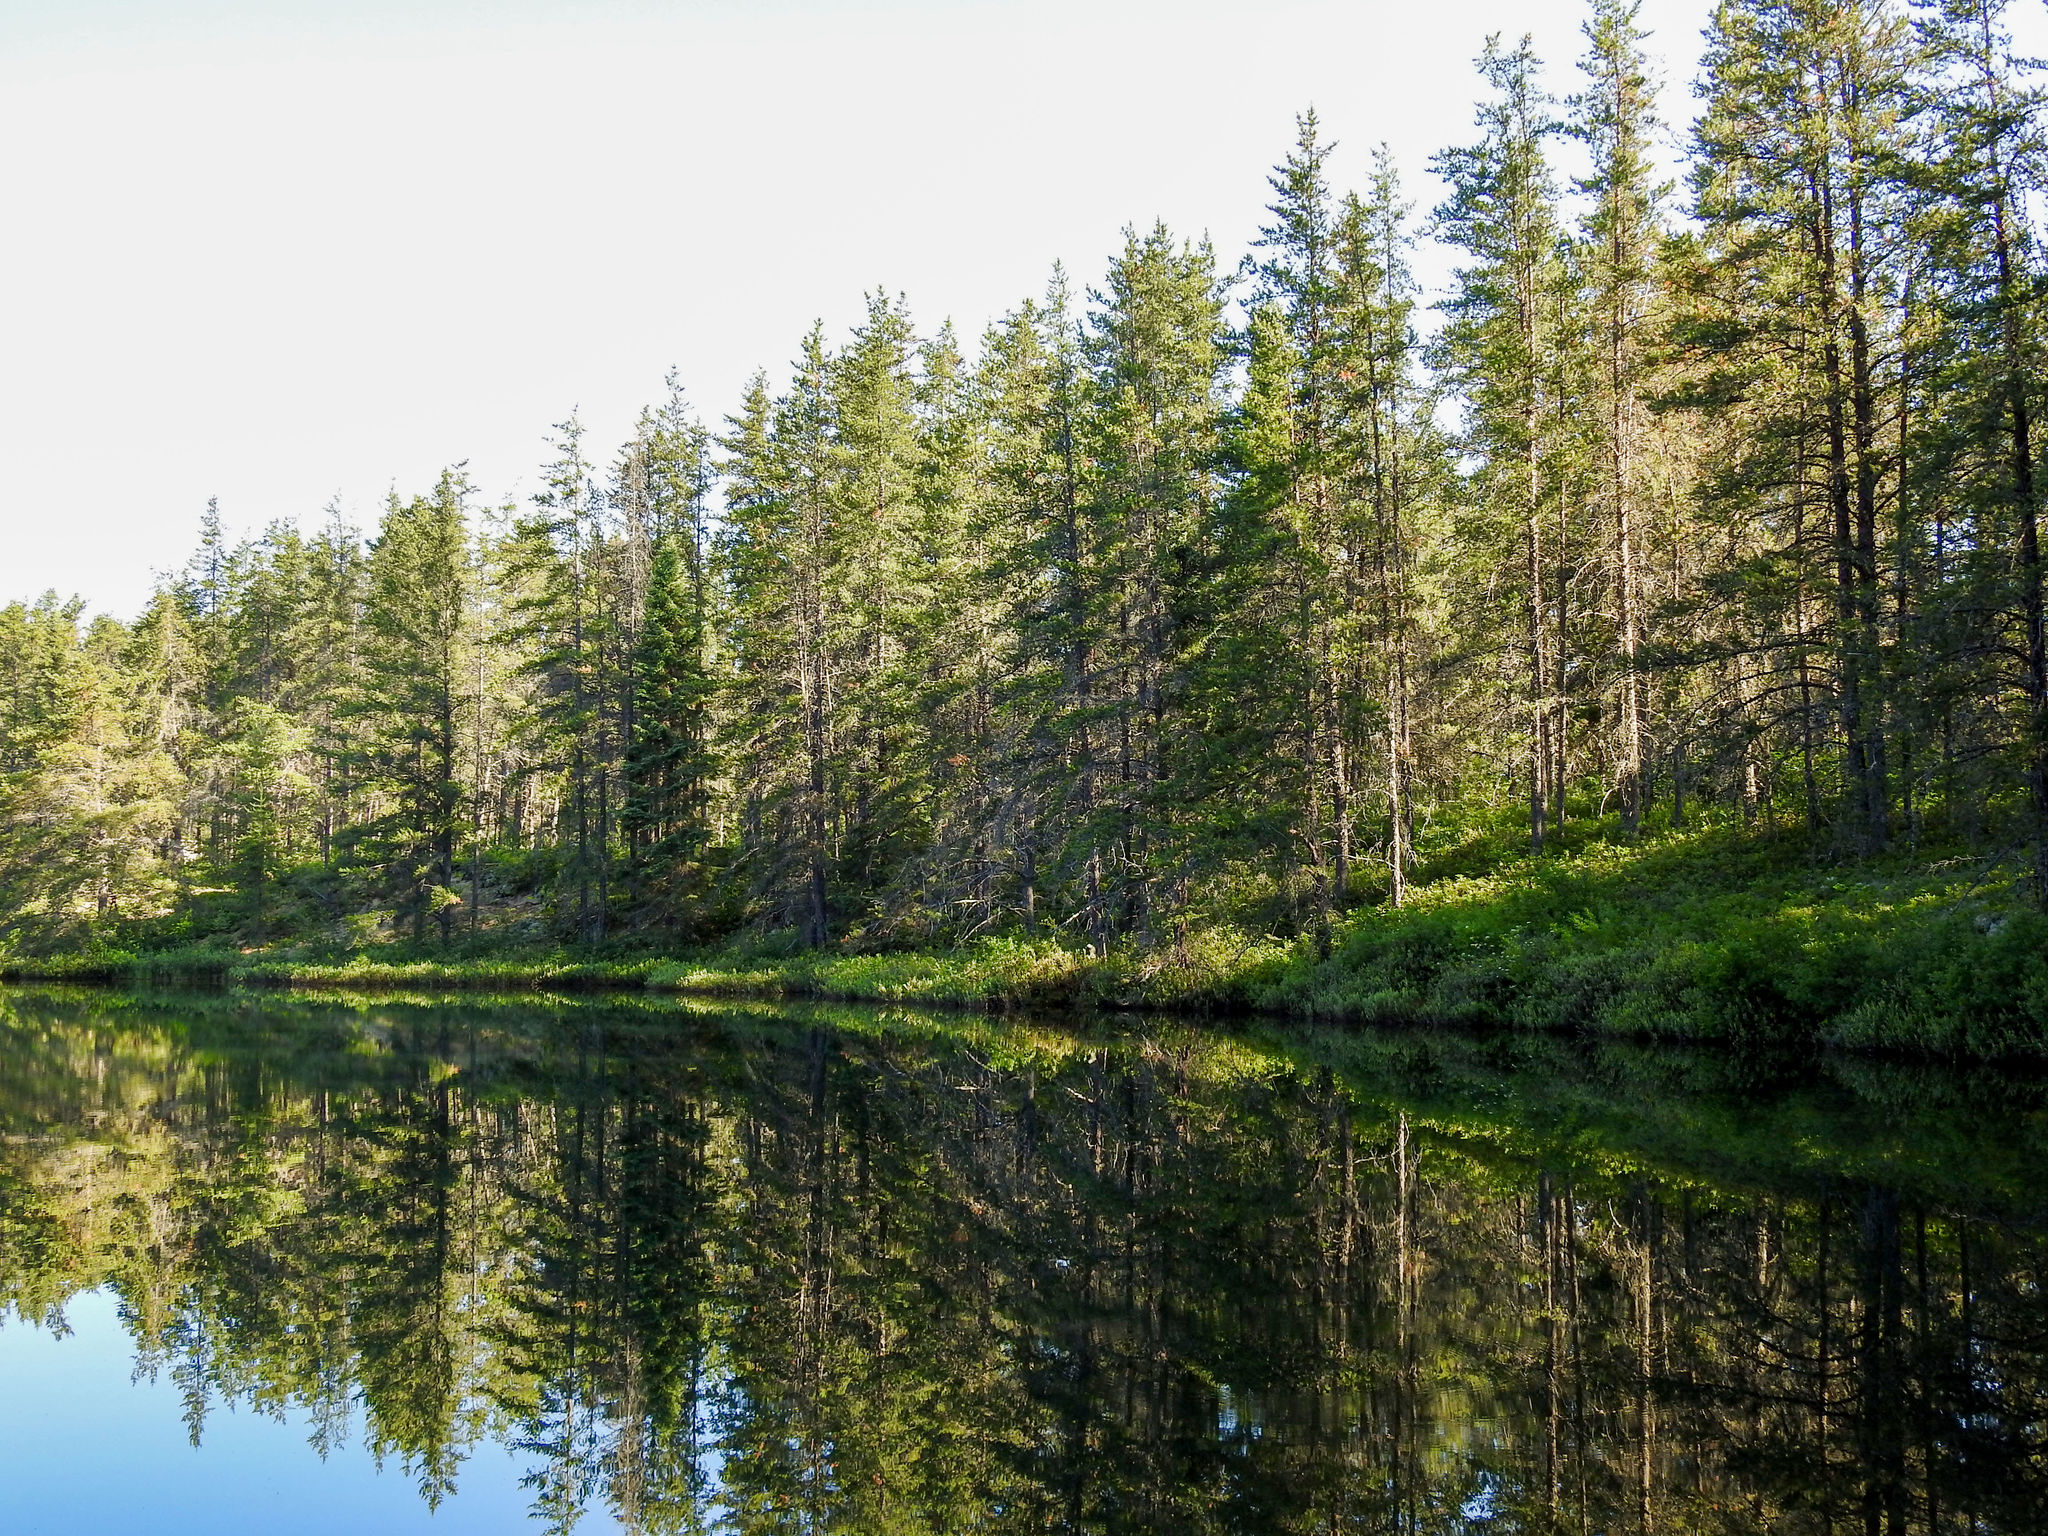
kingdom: Plantae
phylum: Tracheophyta
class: Pinopsida
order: Pinales
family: Pinaceae
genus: Pinus
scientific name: Pinus banksiana
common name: Jack pine
